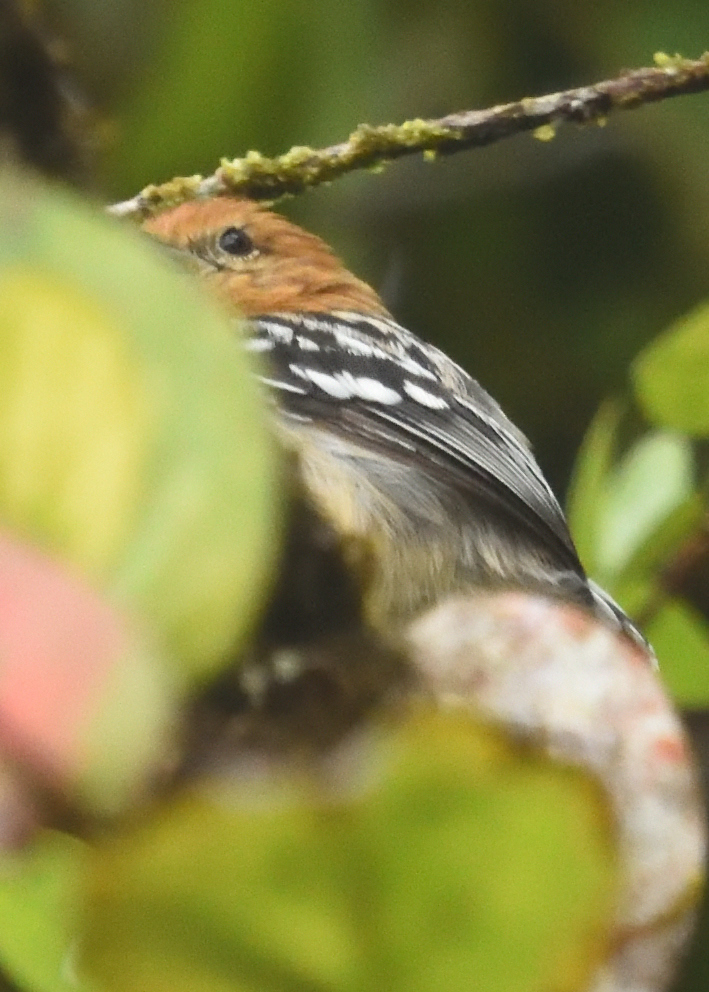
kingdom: Animalia
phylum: Chordata
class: Aves
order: Passeriformes
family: Thamnophilidae
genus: Myrmotherula
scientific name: Myrmotherula pacifica
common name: Pacific antwren
